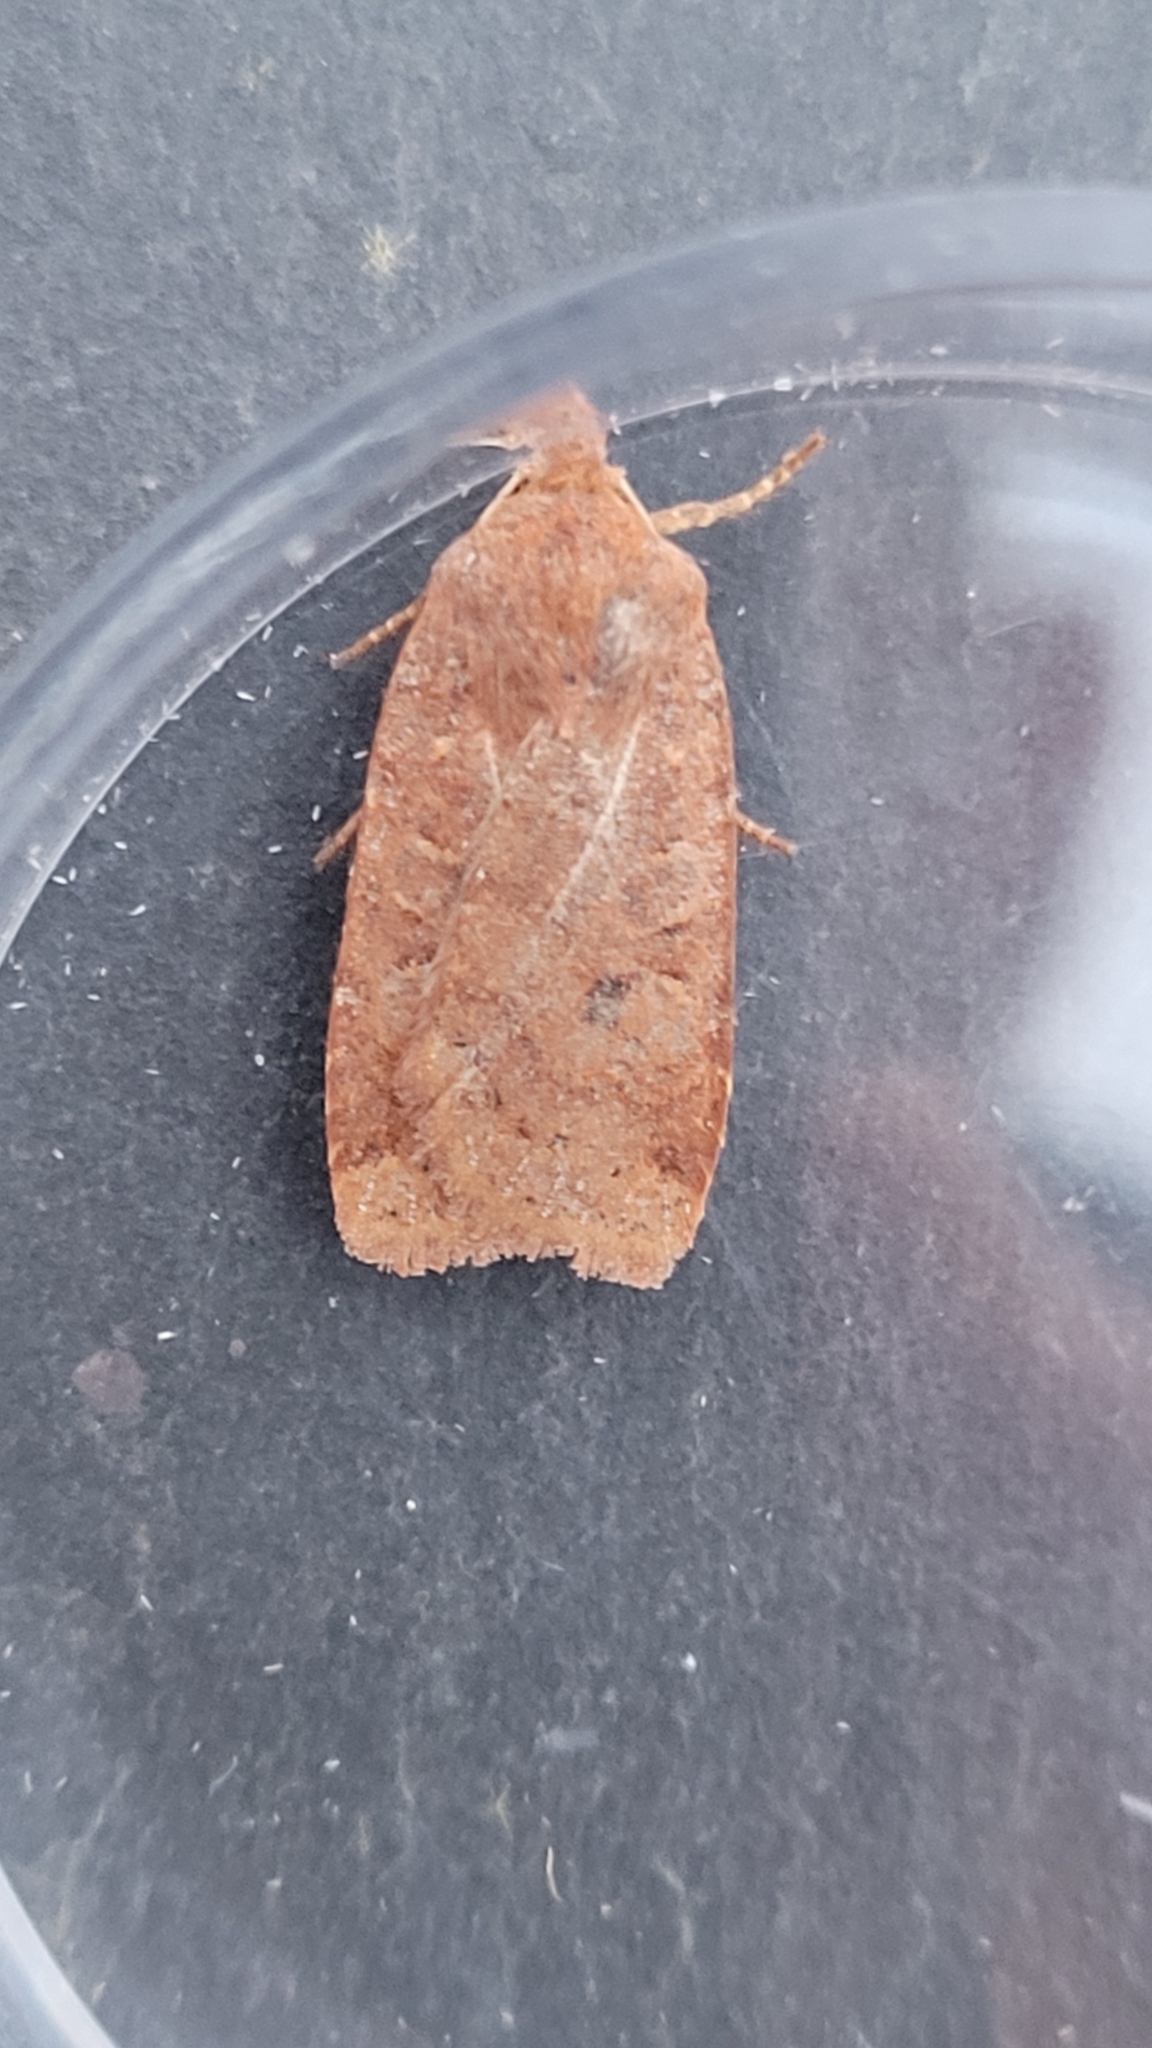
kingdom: Animalia
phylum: Arthropoda
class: Insecta
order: Lepidoptera
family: Noctuidae
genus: Conistra
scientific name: Conistra vaccinii
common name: Chestnut
